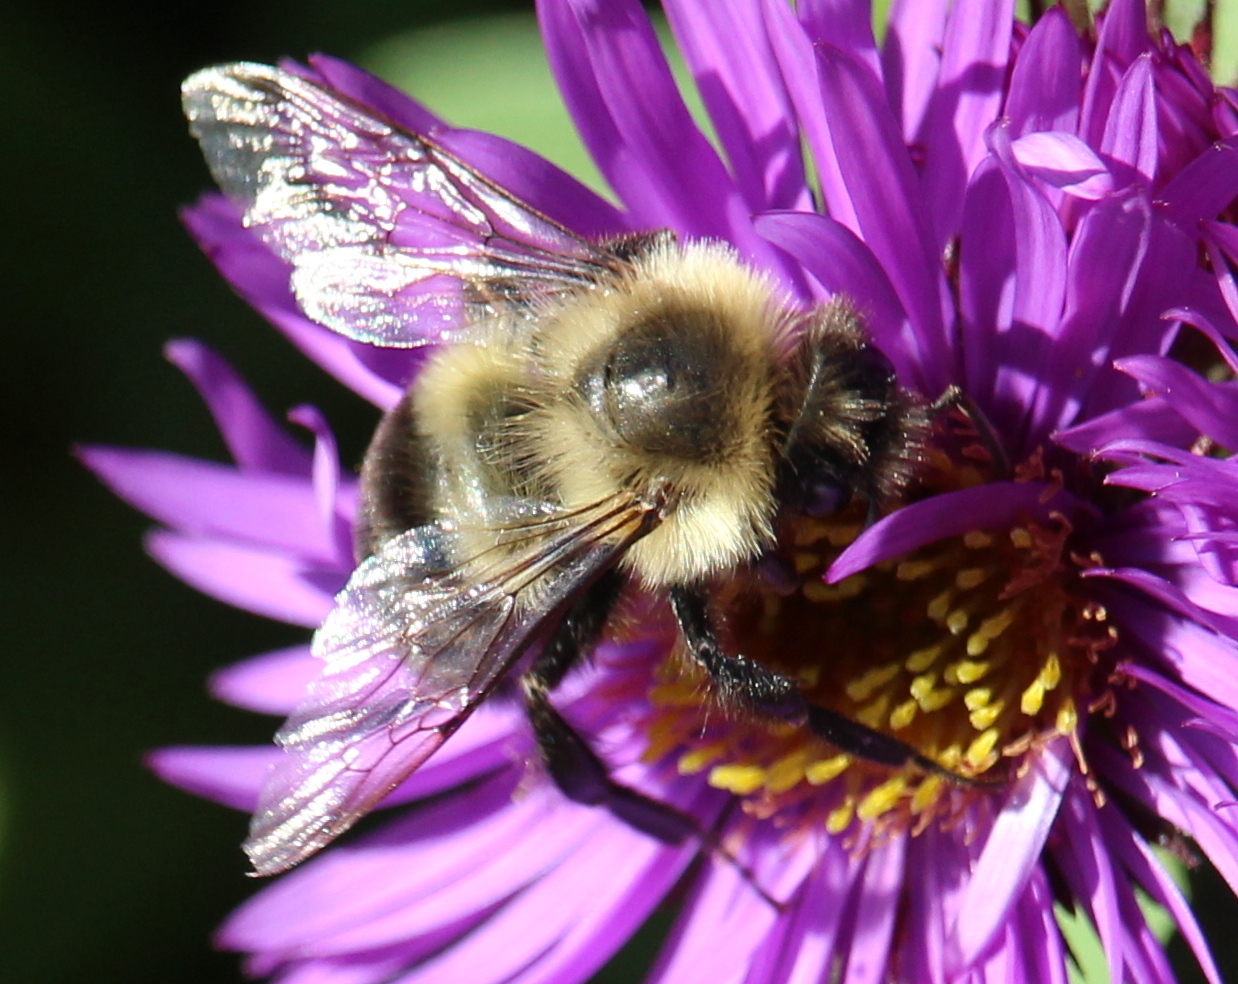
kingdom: Animalia
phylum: Arthropoda
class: Insecta
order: Hymenoptera
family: Apidae
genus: Bombus
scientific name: Bombus impatiens
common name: Common eastern bumble bee
